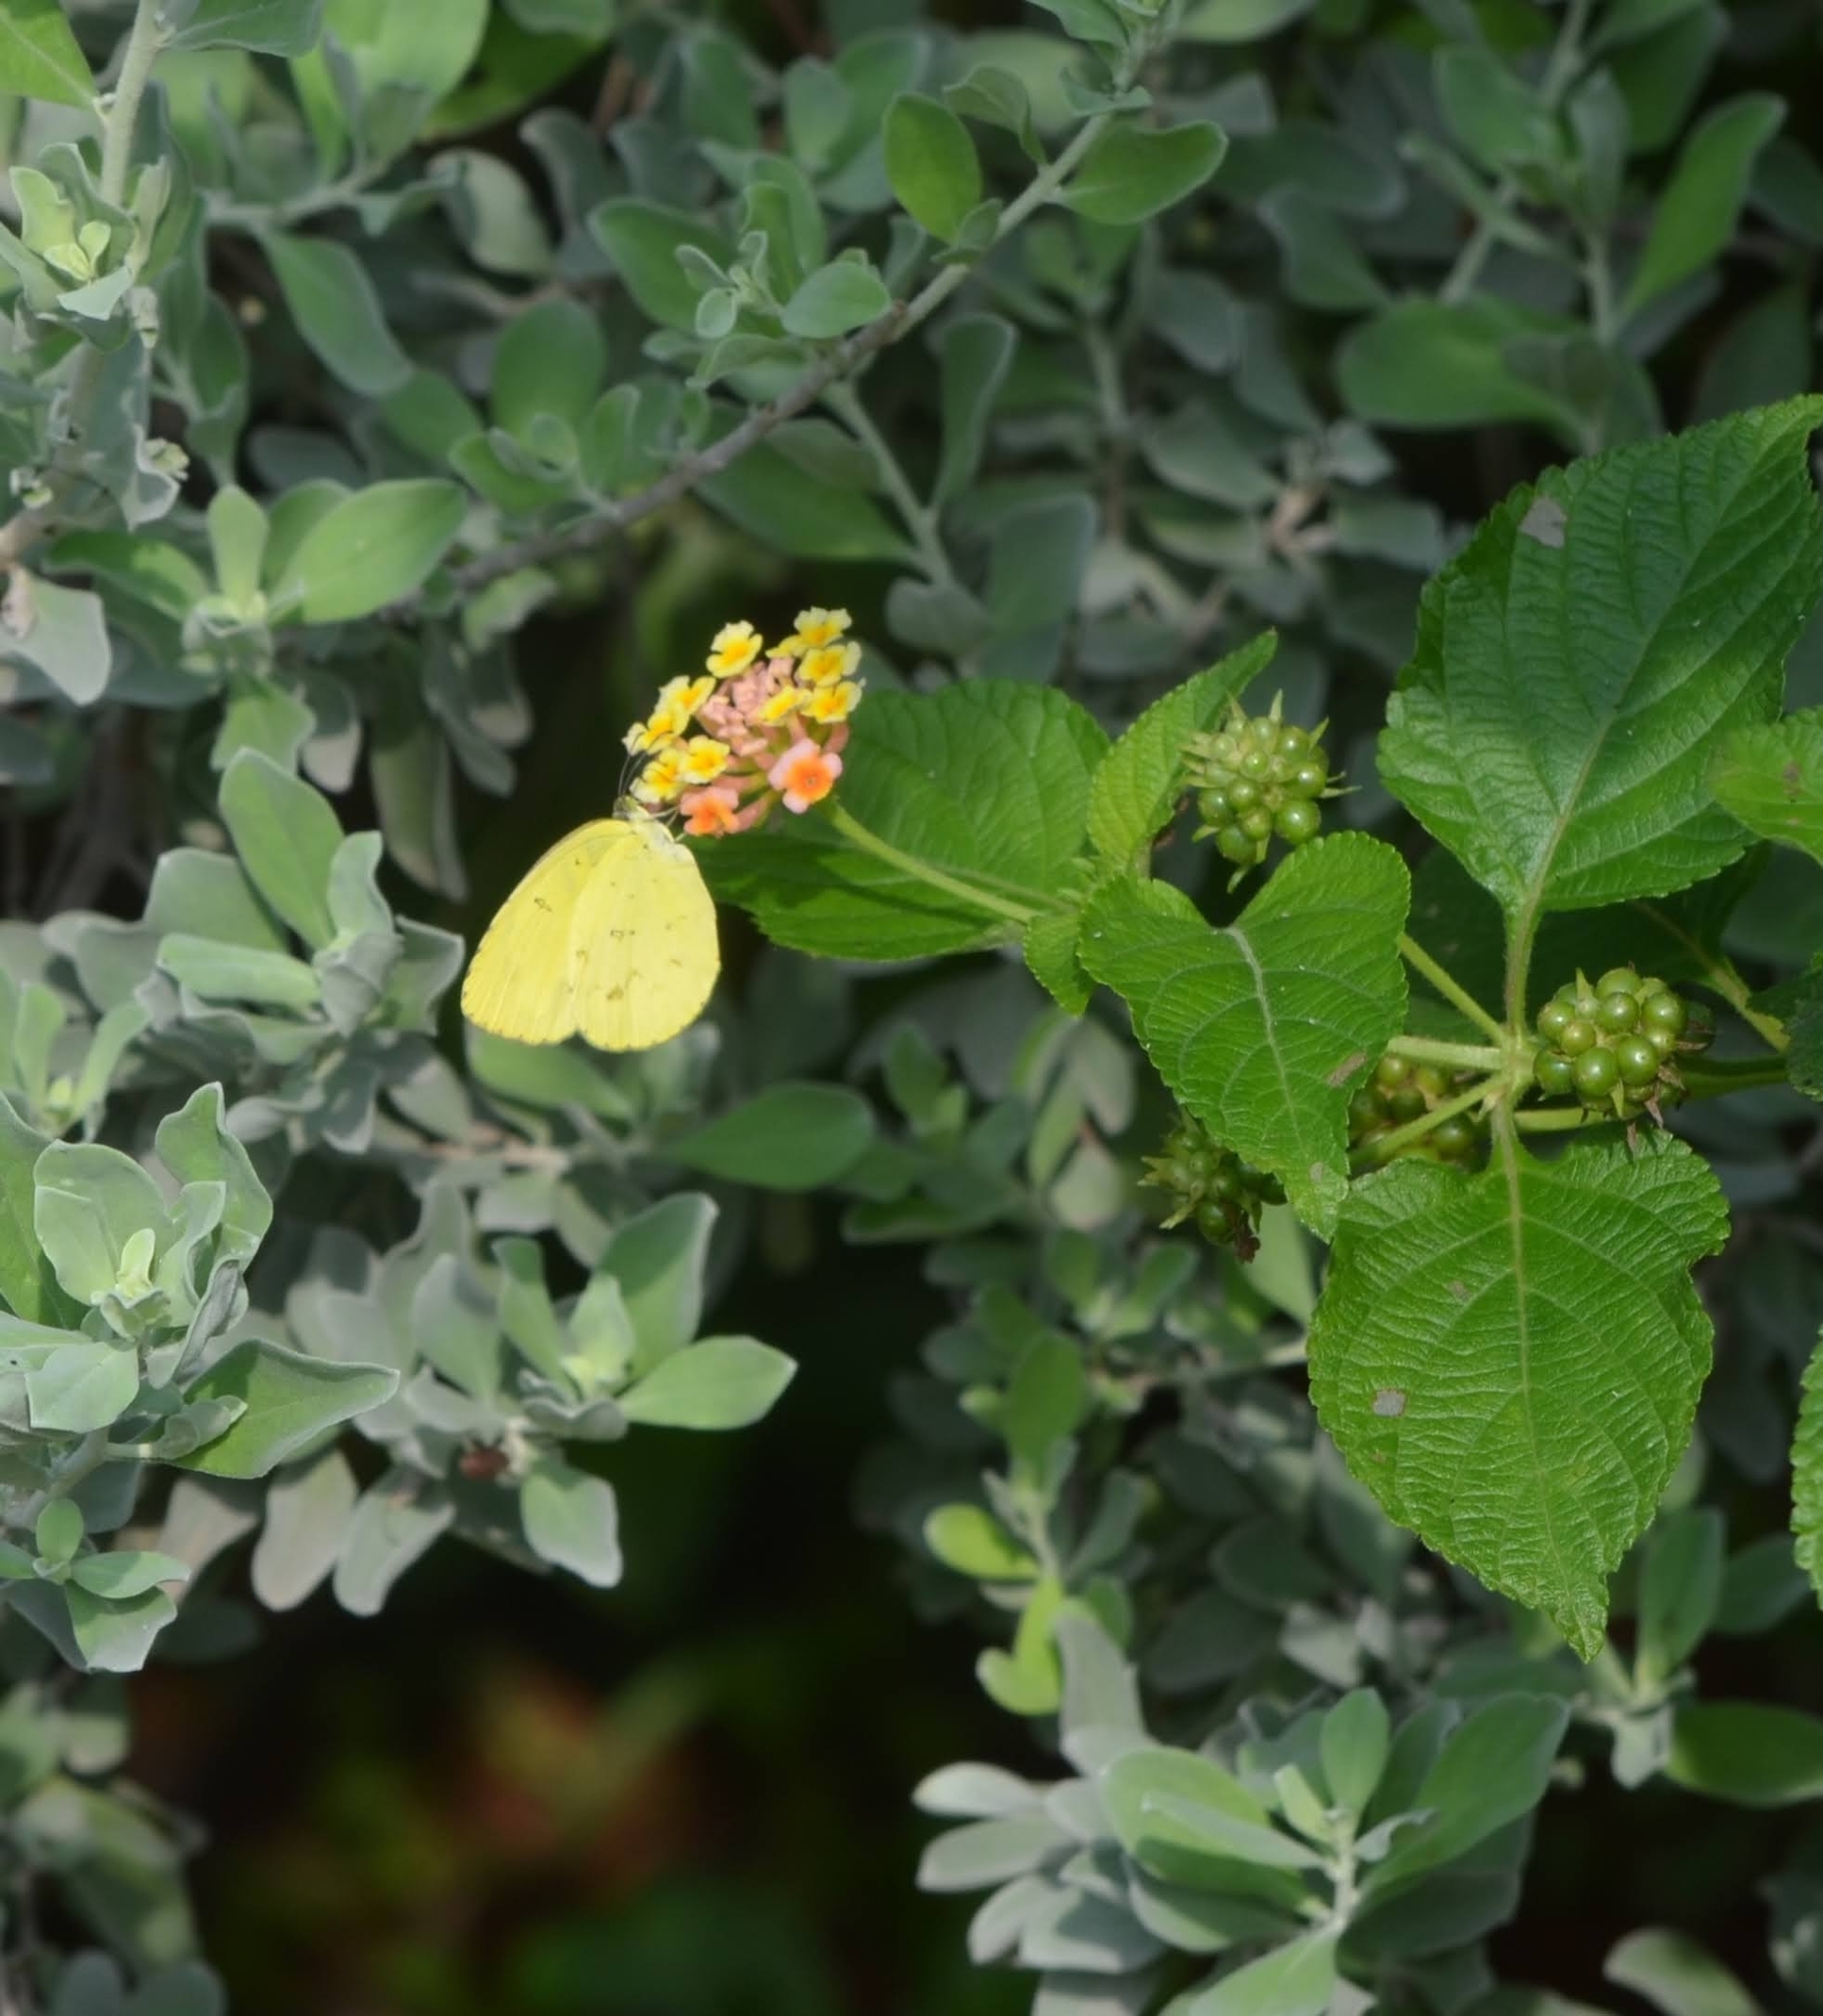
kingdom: Animalia
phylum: Arthropoda
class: Insecta
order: Lepidoptera
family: Pieridae
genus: Eurema
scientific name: Eurema hecabe
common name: Pale grass yellow
